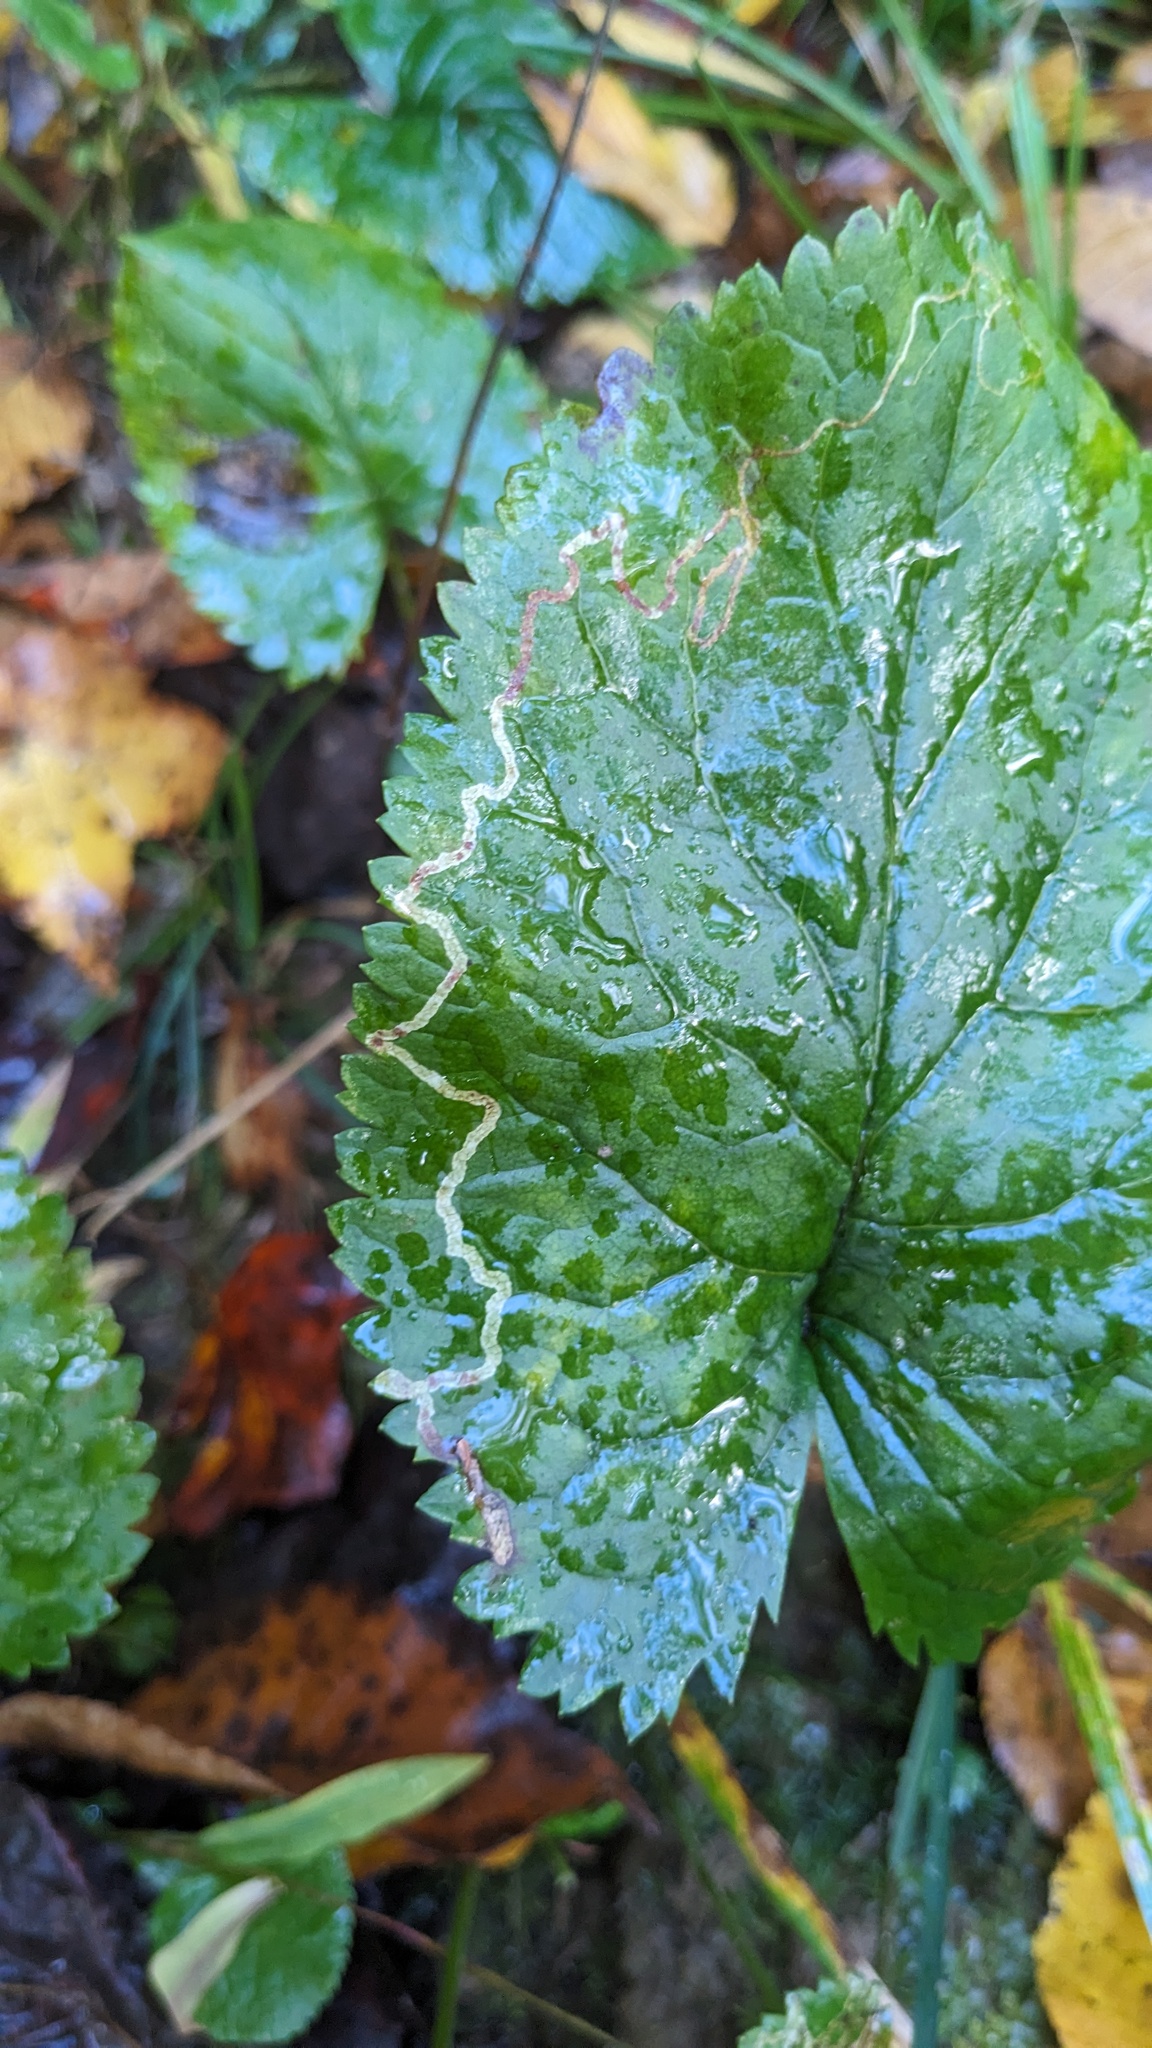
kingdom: Animalia
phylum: Arthropoda
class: Insecta
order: Lepidoptera
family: Gracillariidae
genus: Phyllocnistis
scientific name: Phyllocnistis insignis
